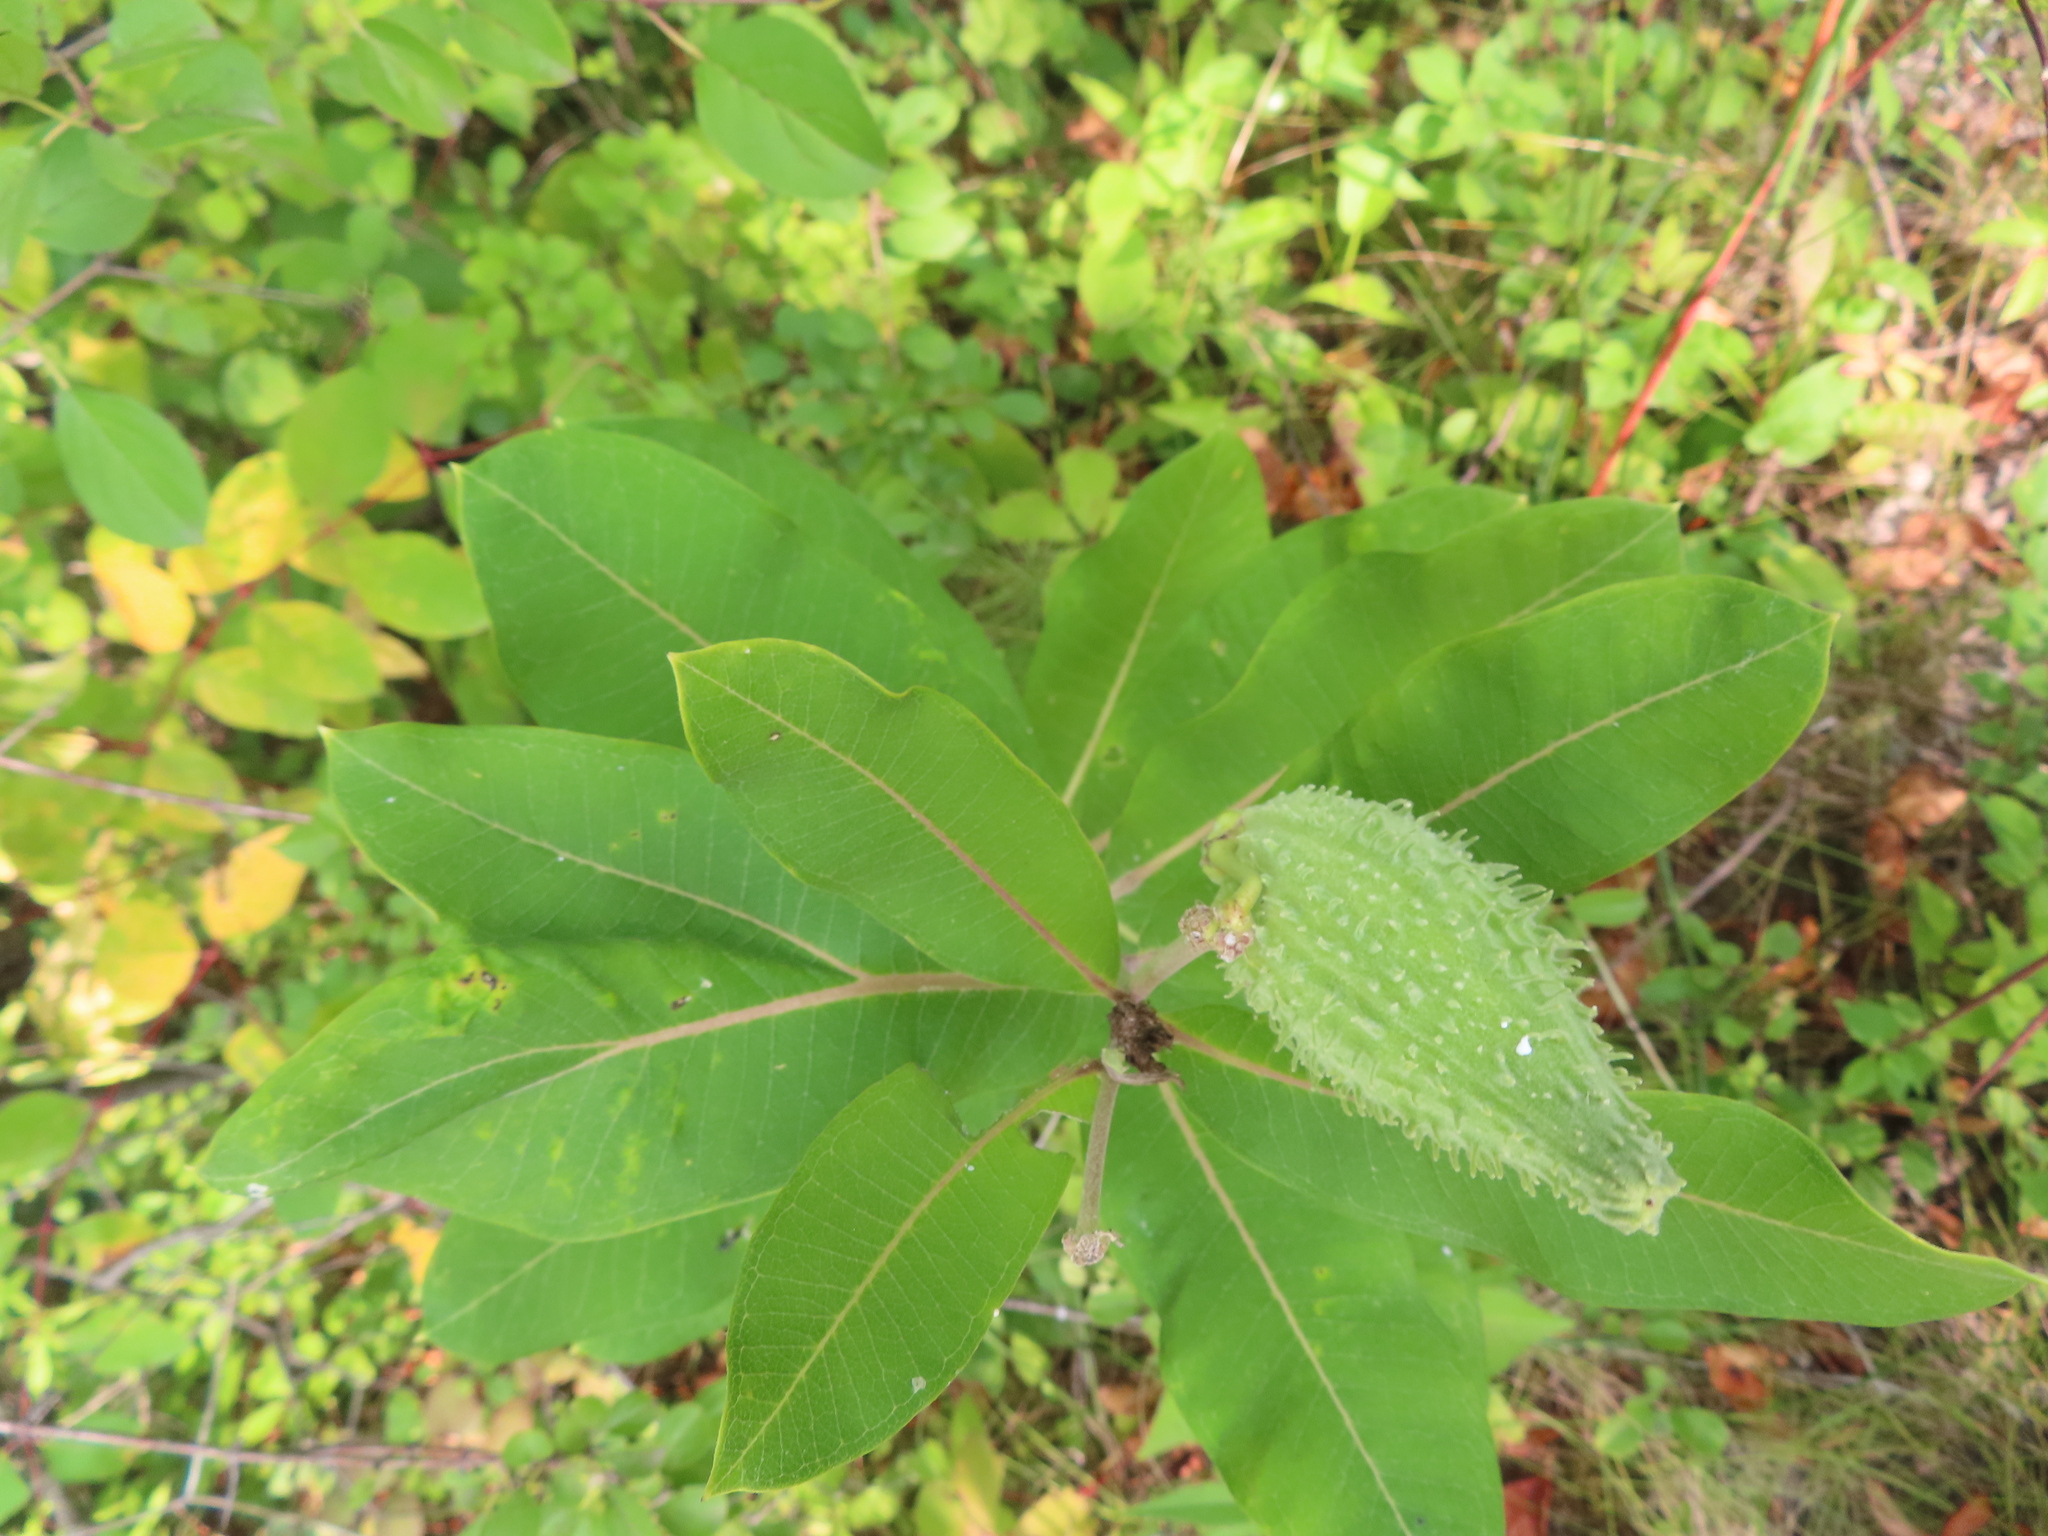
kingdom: Plantae
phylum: Tracheophyta
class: Magnoliopsida
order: Gentianales
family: Apocynaceae
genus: Asclepias
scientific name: Asclepias syriaca
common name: Common milkweed
